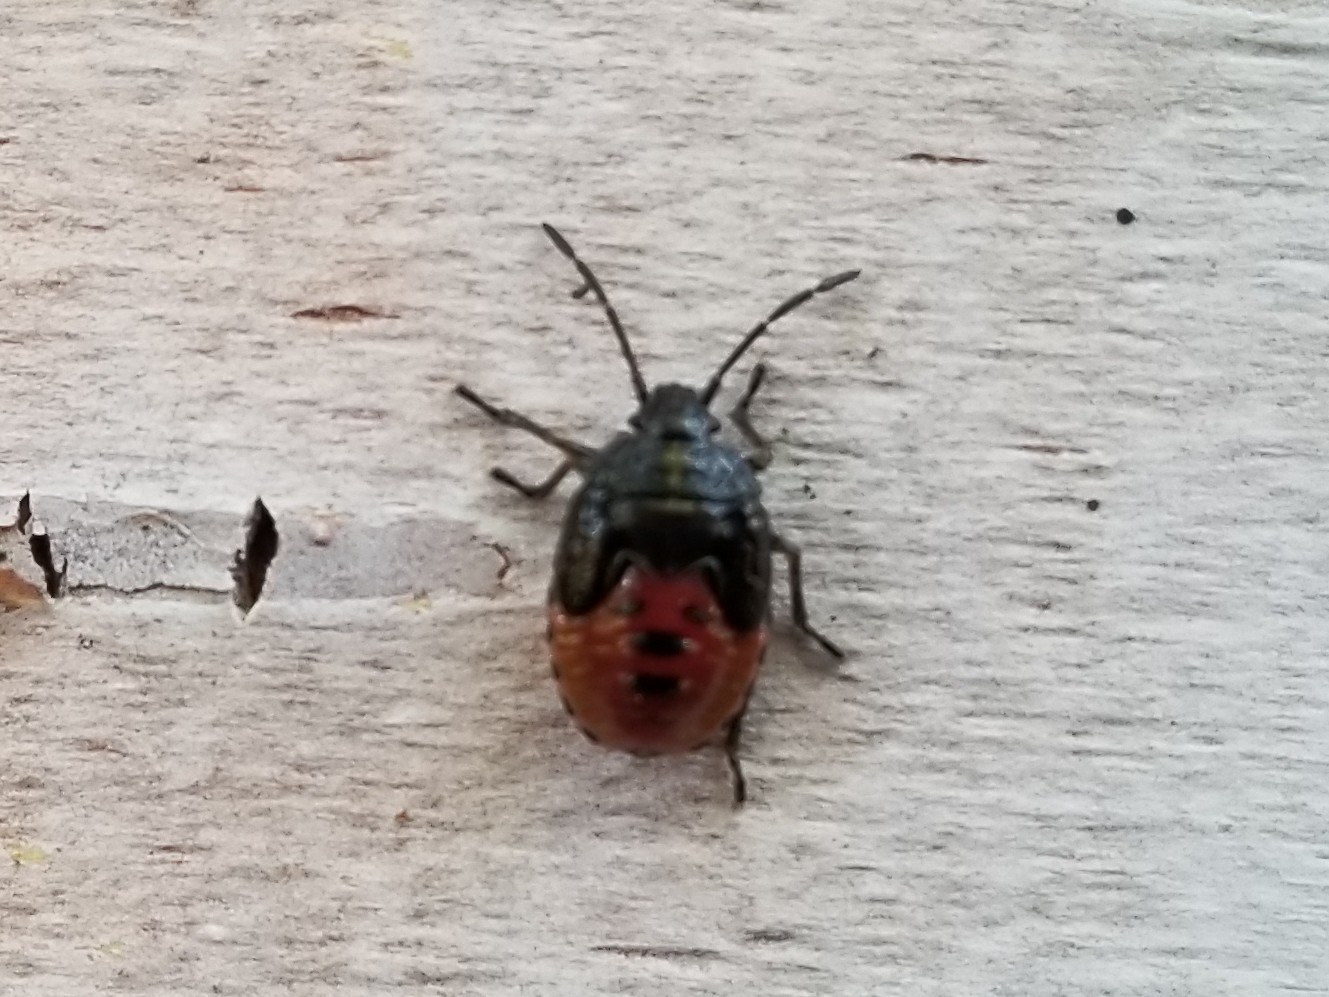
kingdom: Animalia
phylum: Arthropoda
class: Insecta
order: Hemiptera
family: Acanthosomatidae
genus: Elasmostethus
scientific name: Elasmostethus interstinctus
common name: Birch shieldbug
